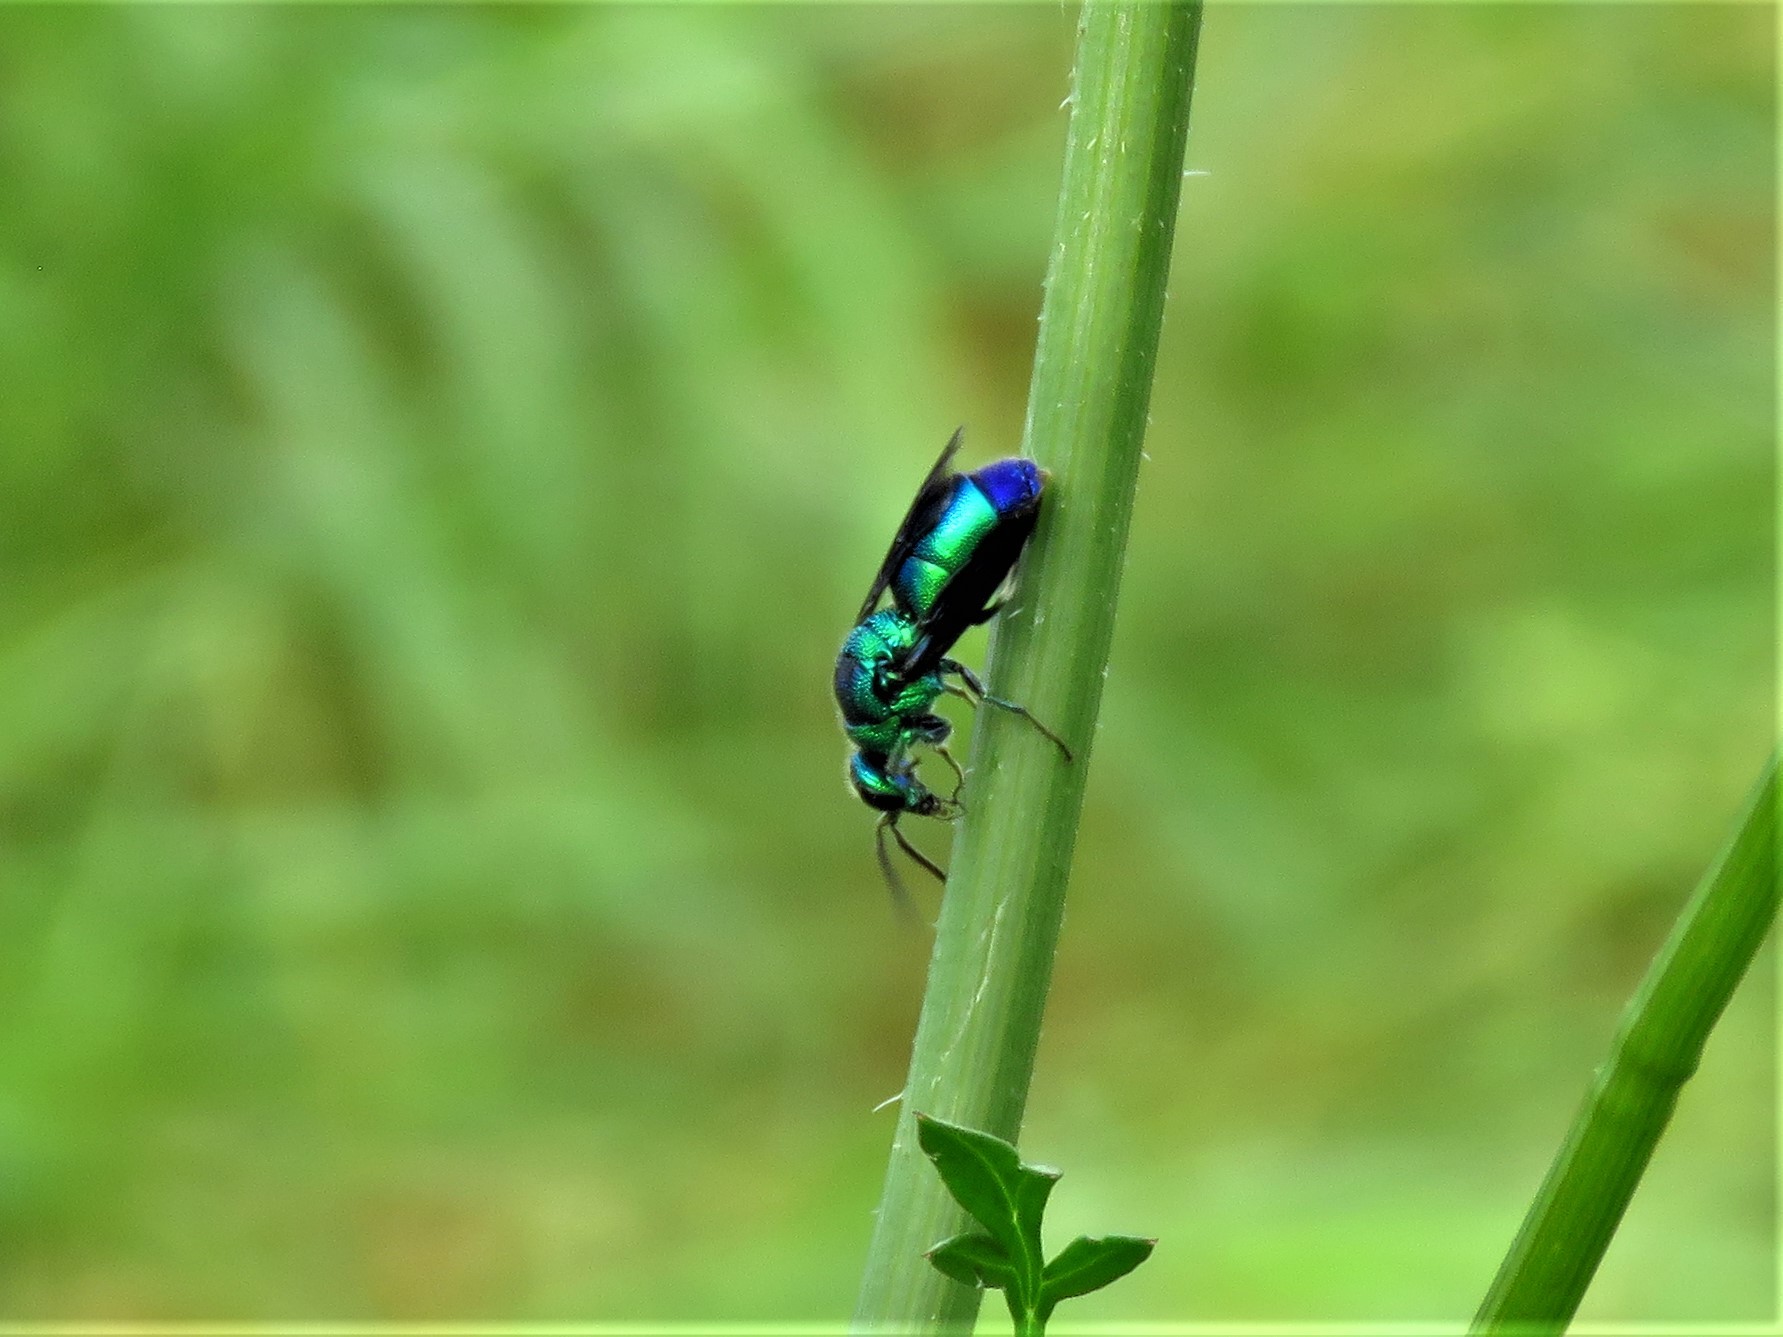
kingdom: Animalia
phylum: Arthropoda
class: Insecta
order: Hymenoptera
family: Chrysididae
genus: Chrysis
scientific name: Chrysis angolensis
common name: Cuckoo wasp
